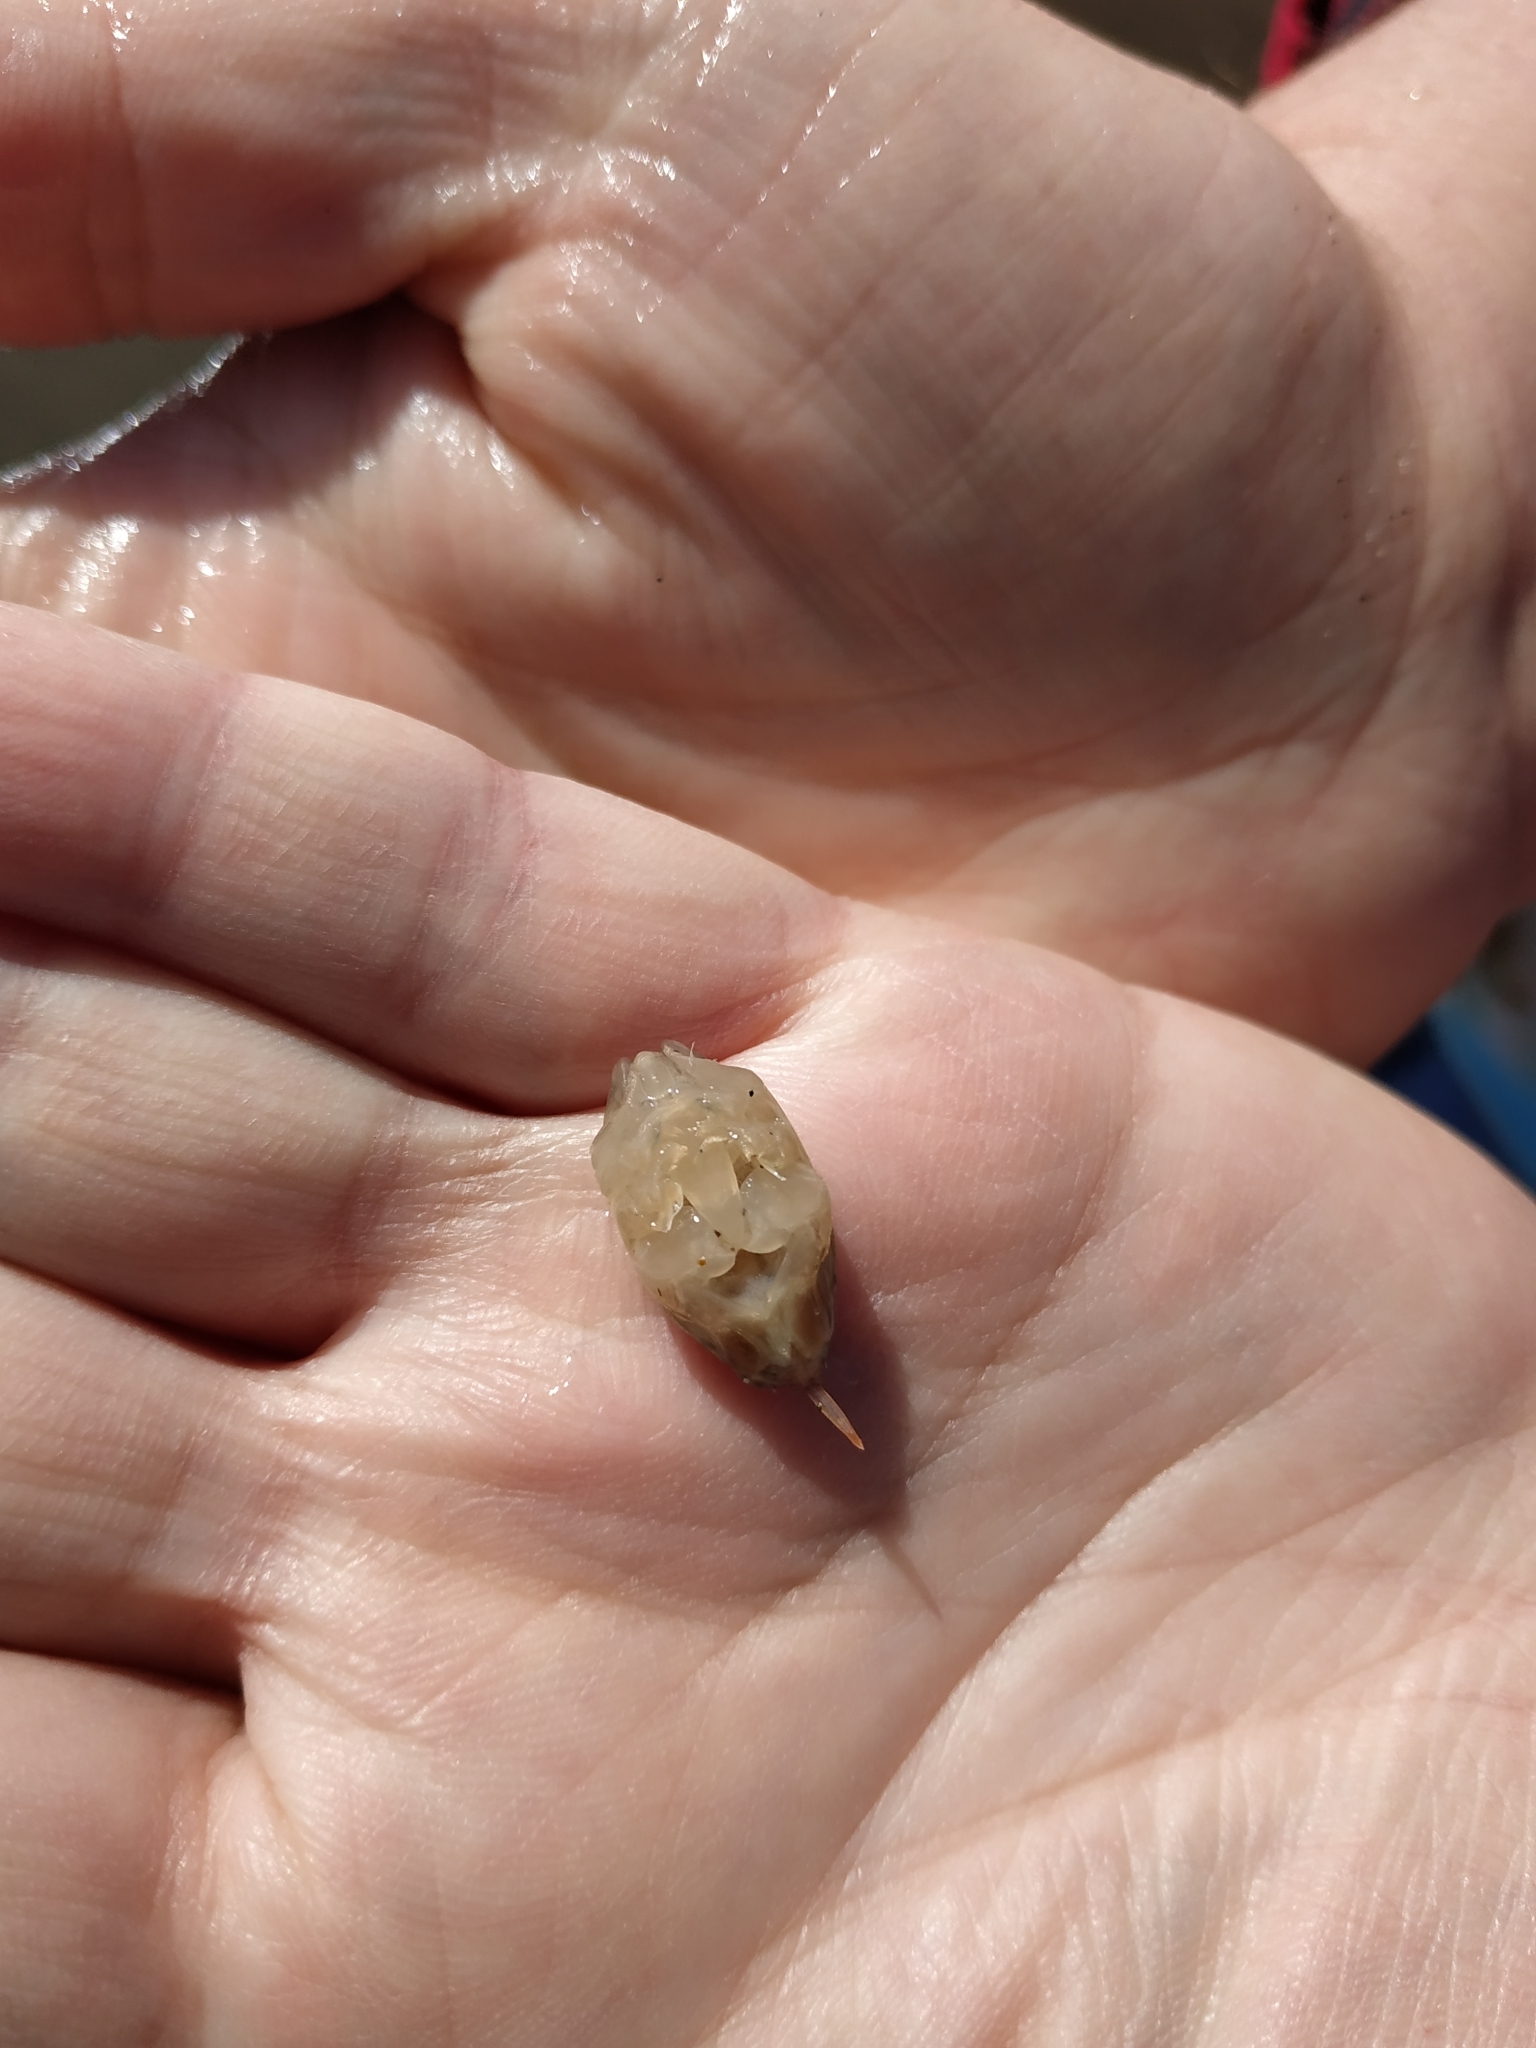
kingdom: Animalia
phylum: Arthropoda
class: Malacostraca
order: Decapoda
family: Hippidae
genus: Emerita
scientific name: Emerita analoga
